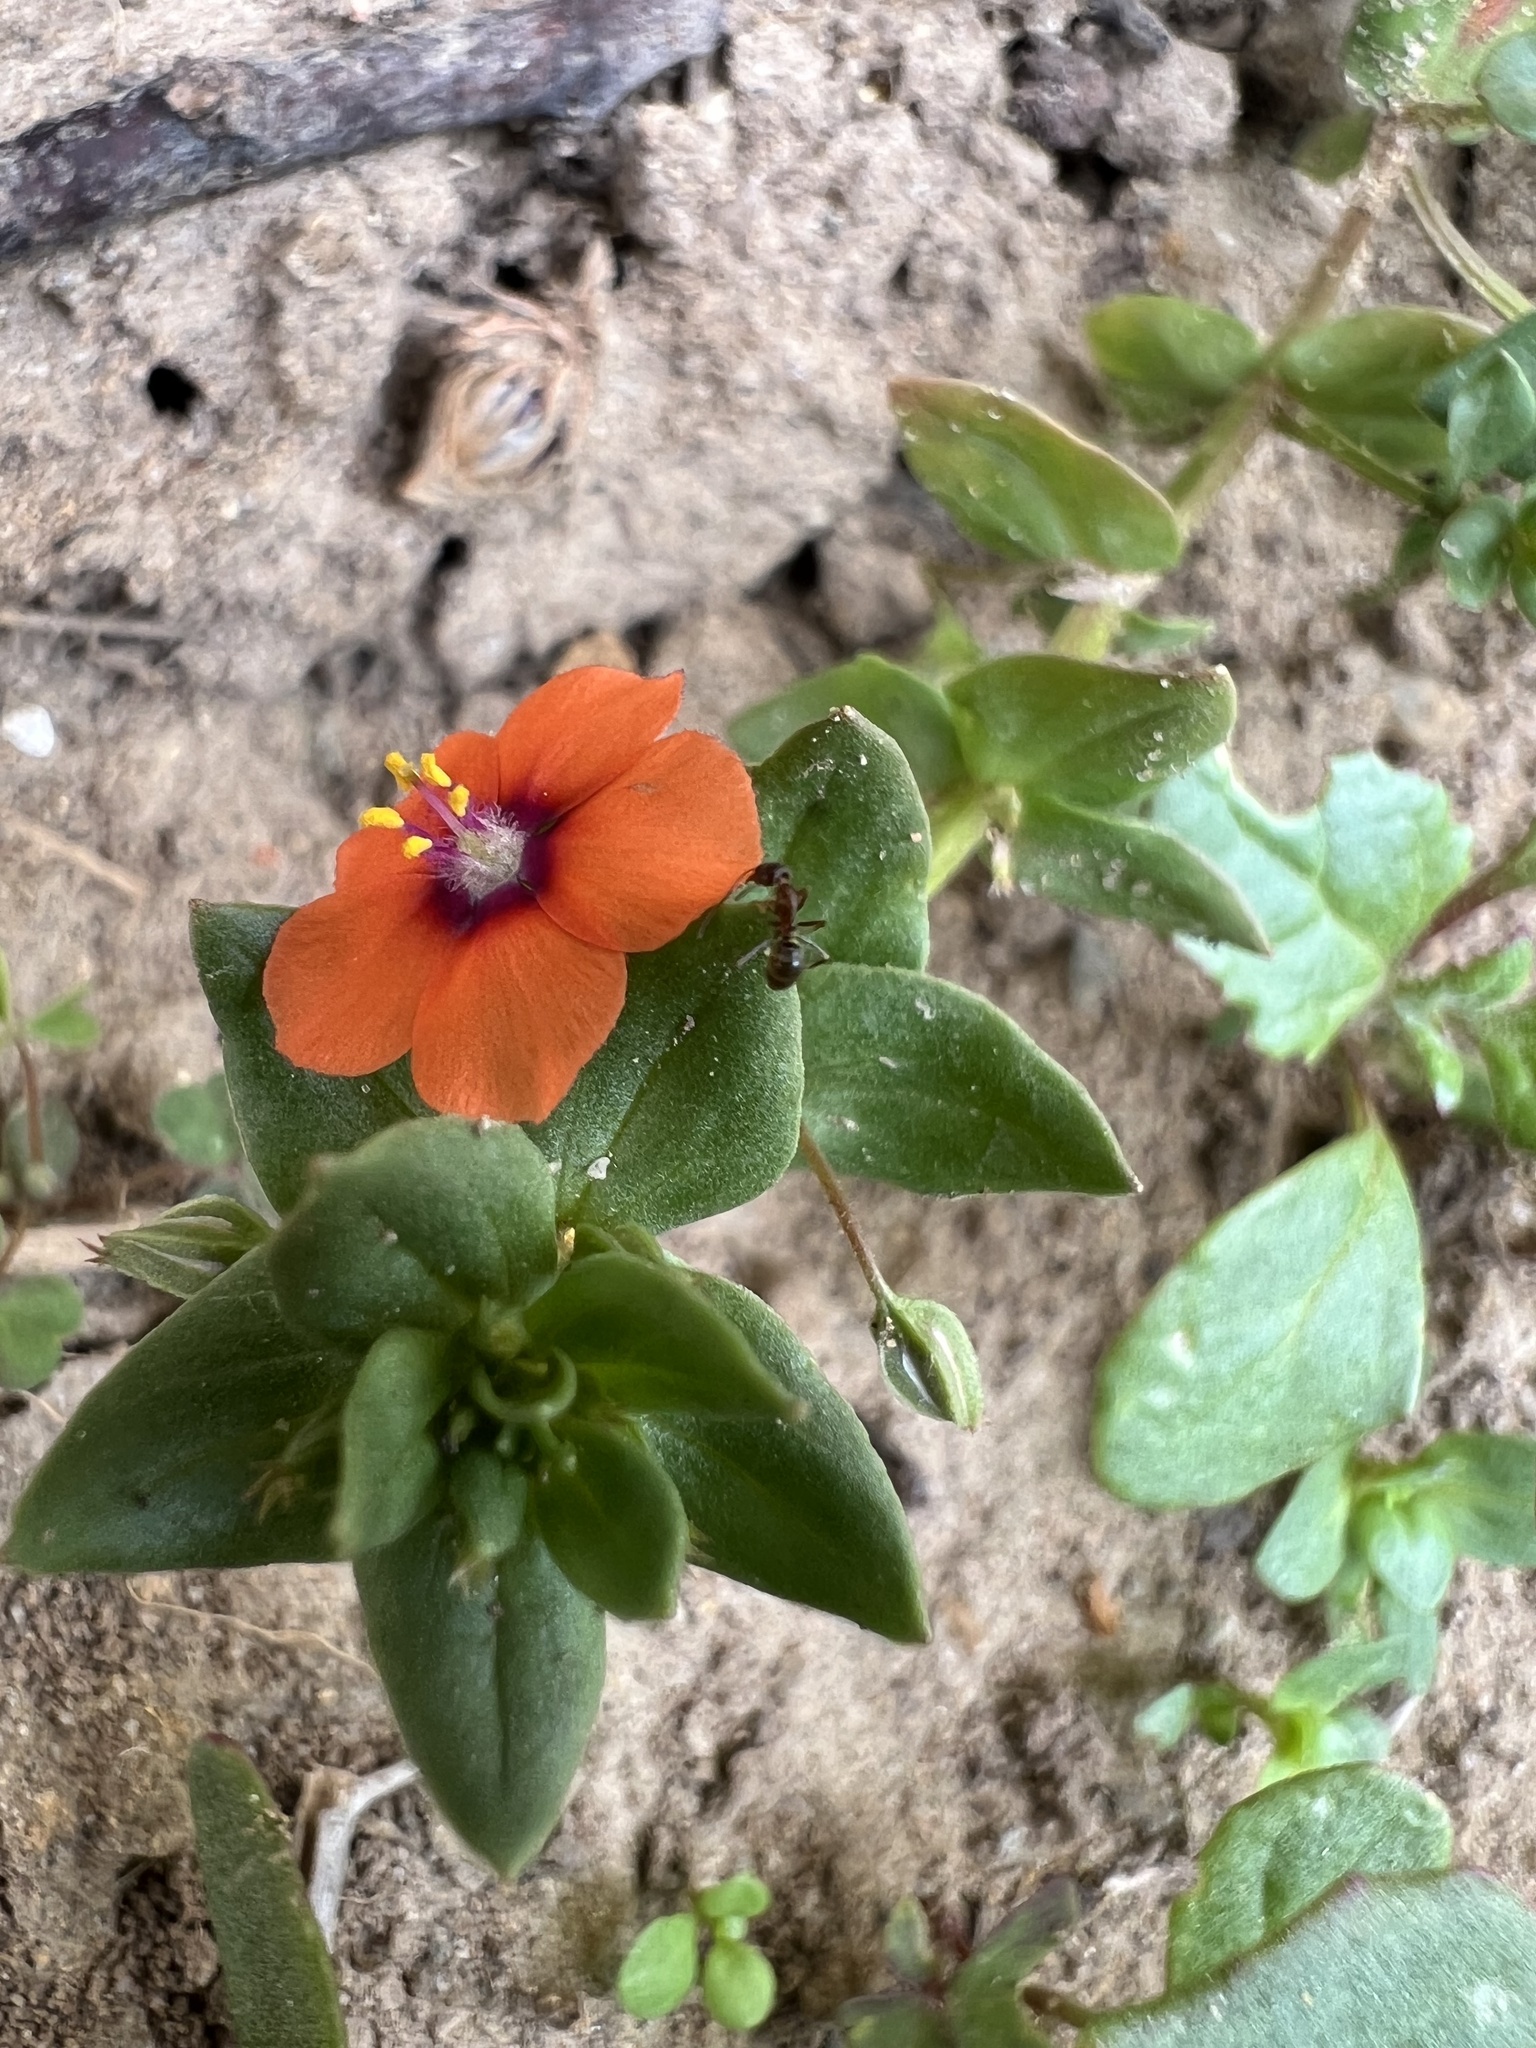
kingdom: Plantae
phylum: Tracheophyta
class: Magnoliopsida
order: Ericales
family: Primulaceae
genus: Lysimachia
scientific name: Lysimachia arvensis
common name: Scarlet pimpernel
